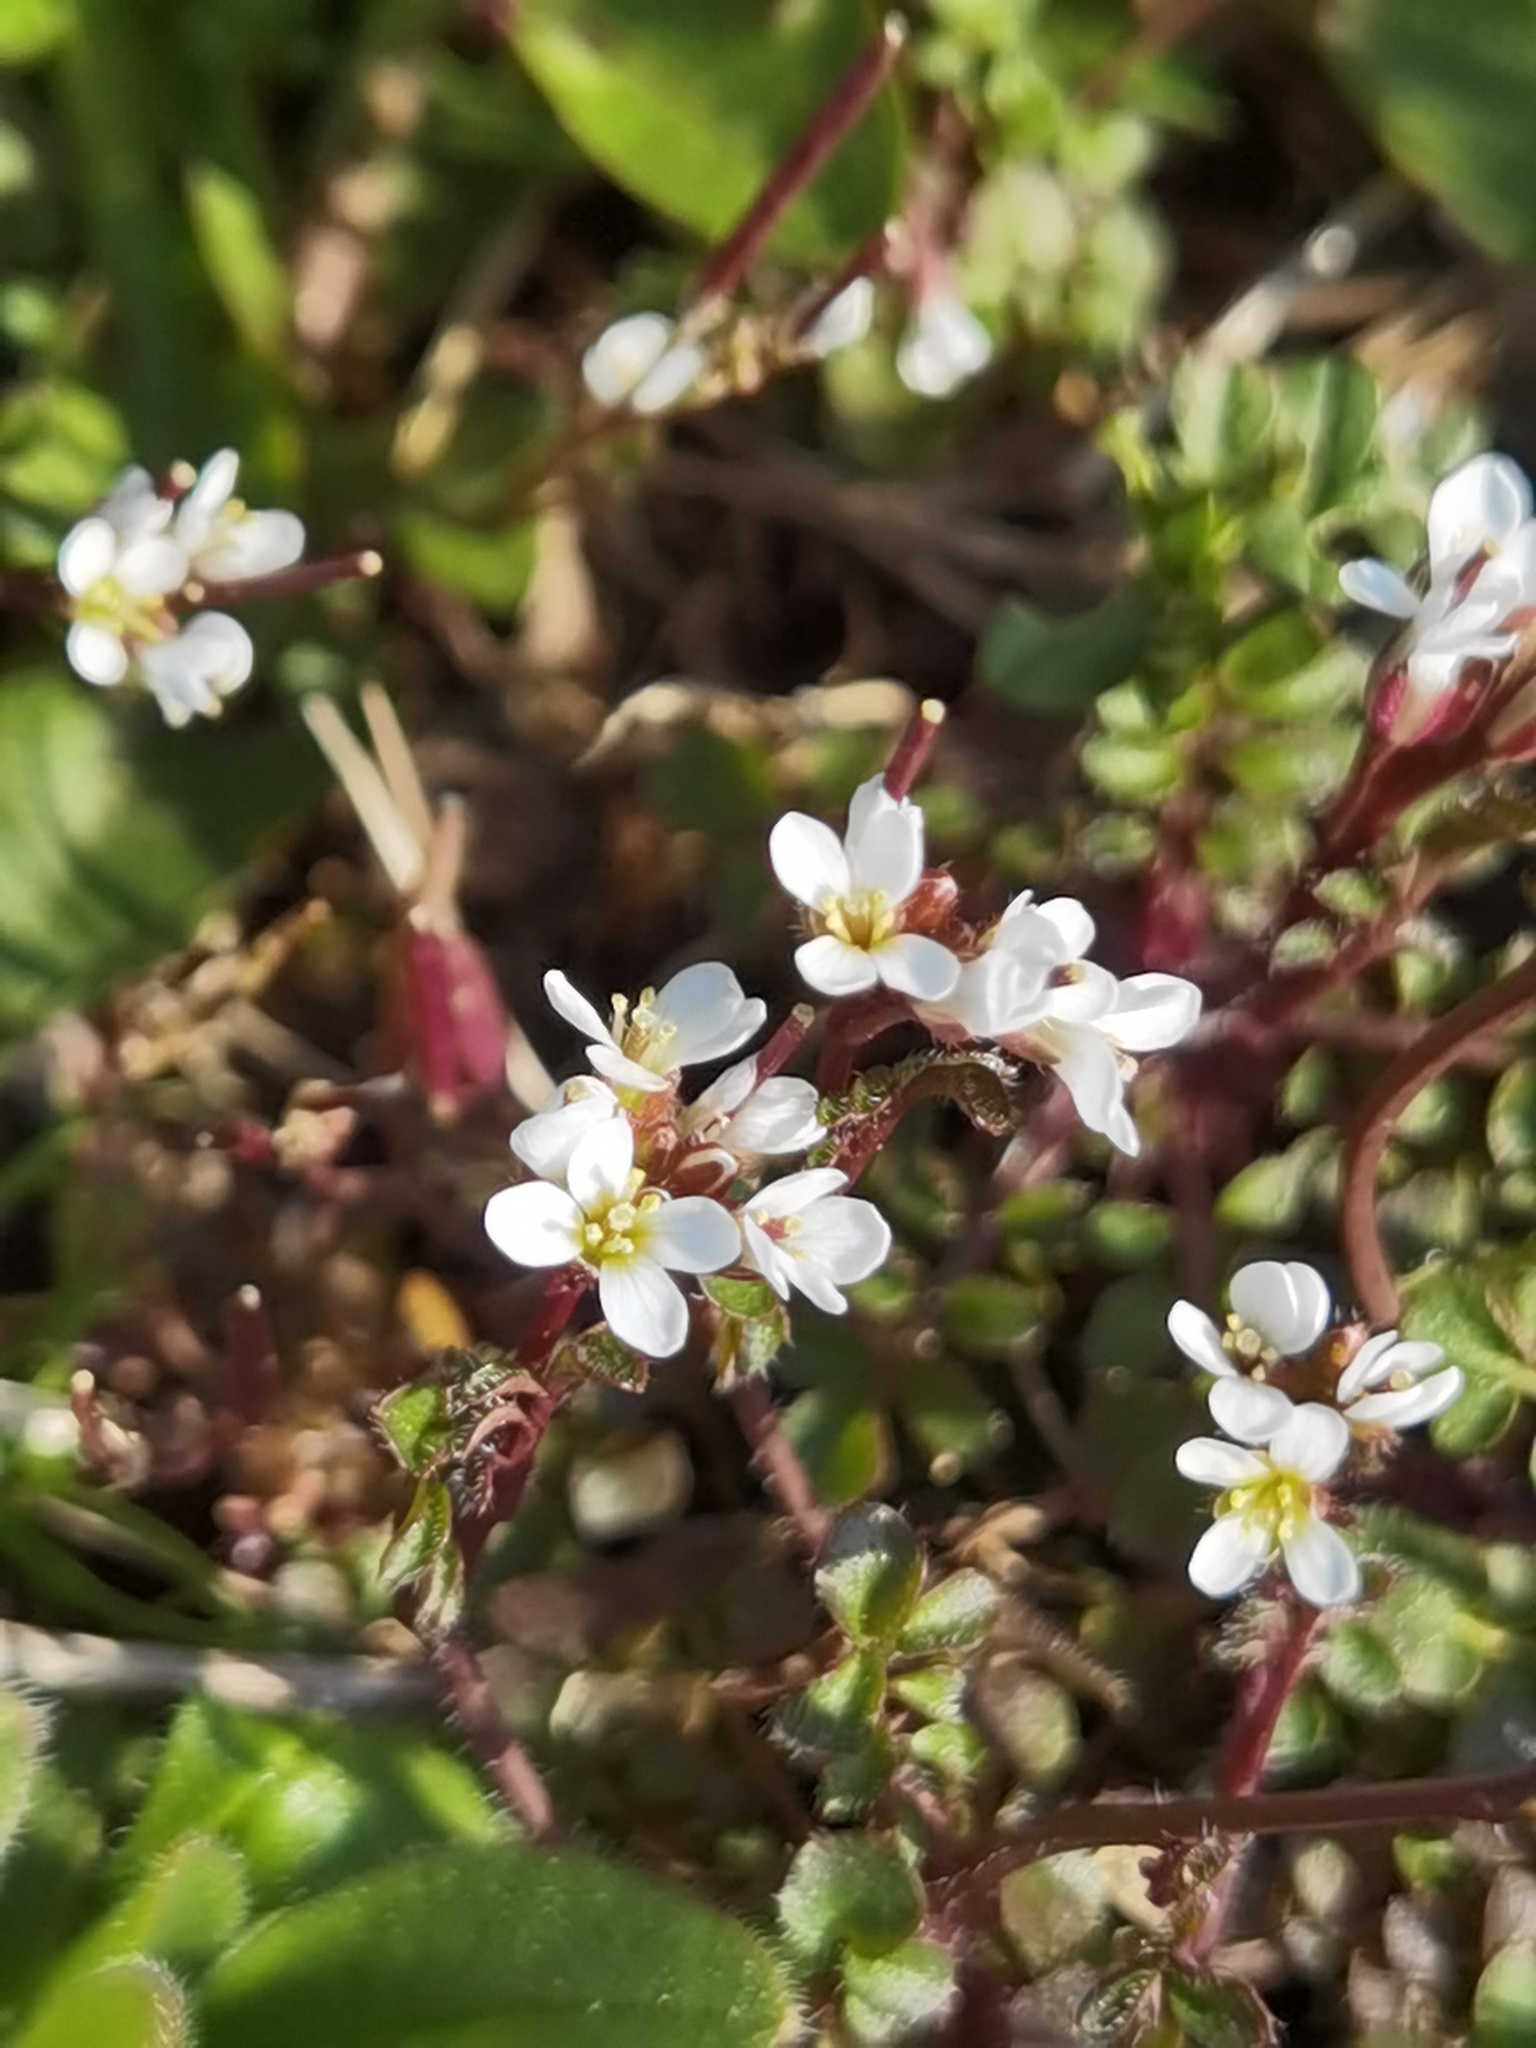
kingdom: Plantae
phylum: Tracheophyta
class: Magnoliopsida
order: Brassicales
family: Brassicaceae
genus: Cardamine
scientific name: Cardamine hirsuta
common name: Hairy bittercress
